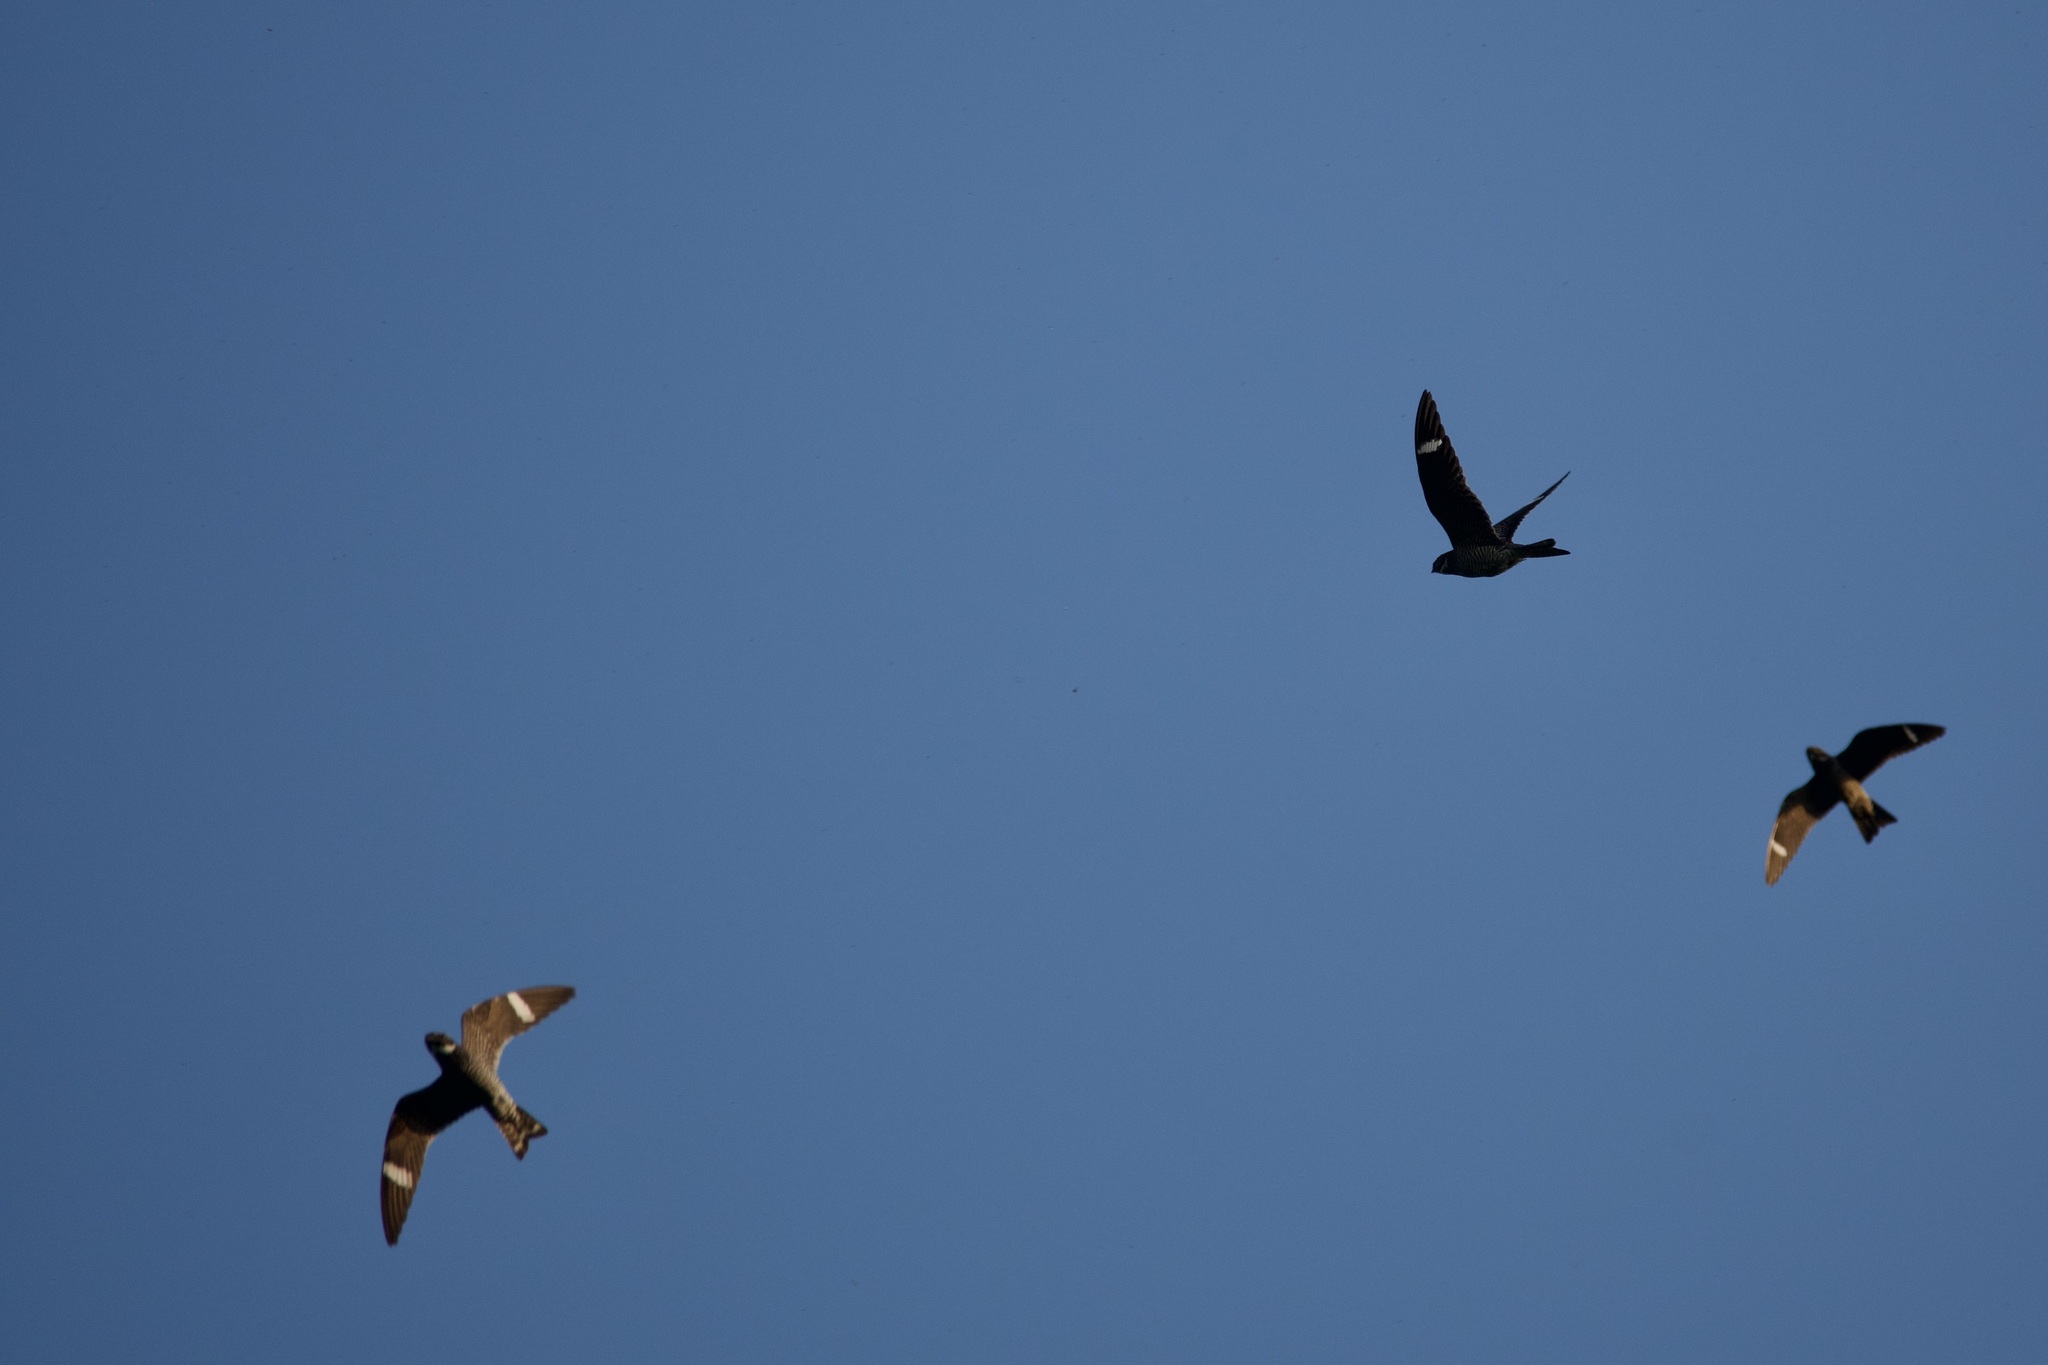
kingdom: Animalia
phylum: Chordata
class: Aves
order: Caprimulgiformes
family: Caprimulgidae
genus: Chordeiles
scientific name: Chordeiles minor
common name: Common nighthawk
